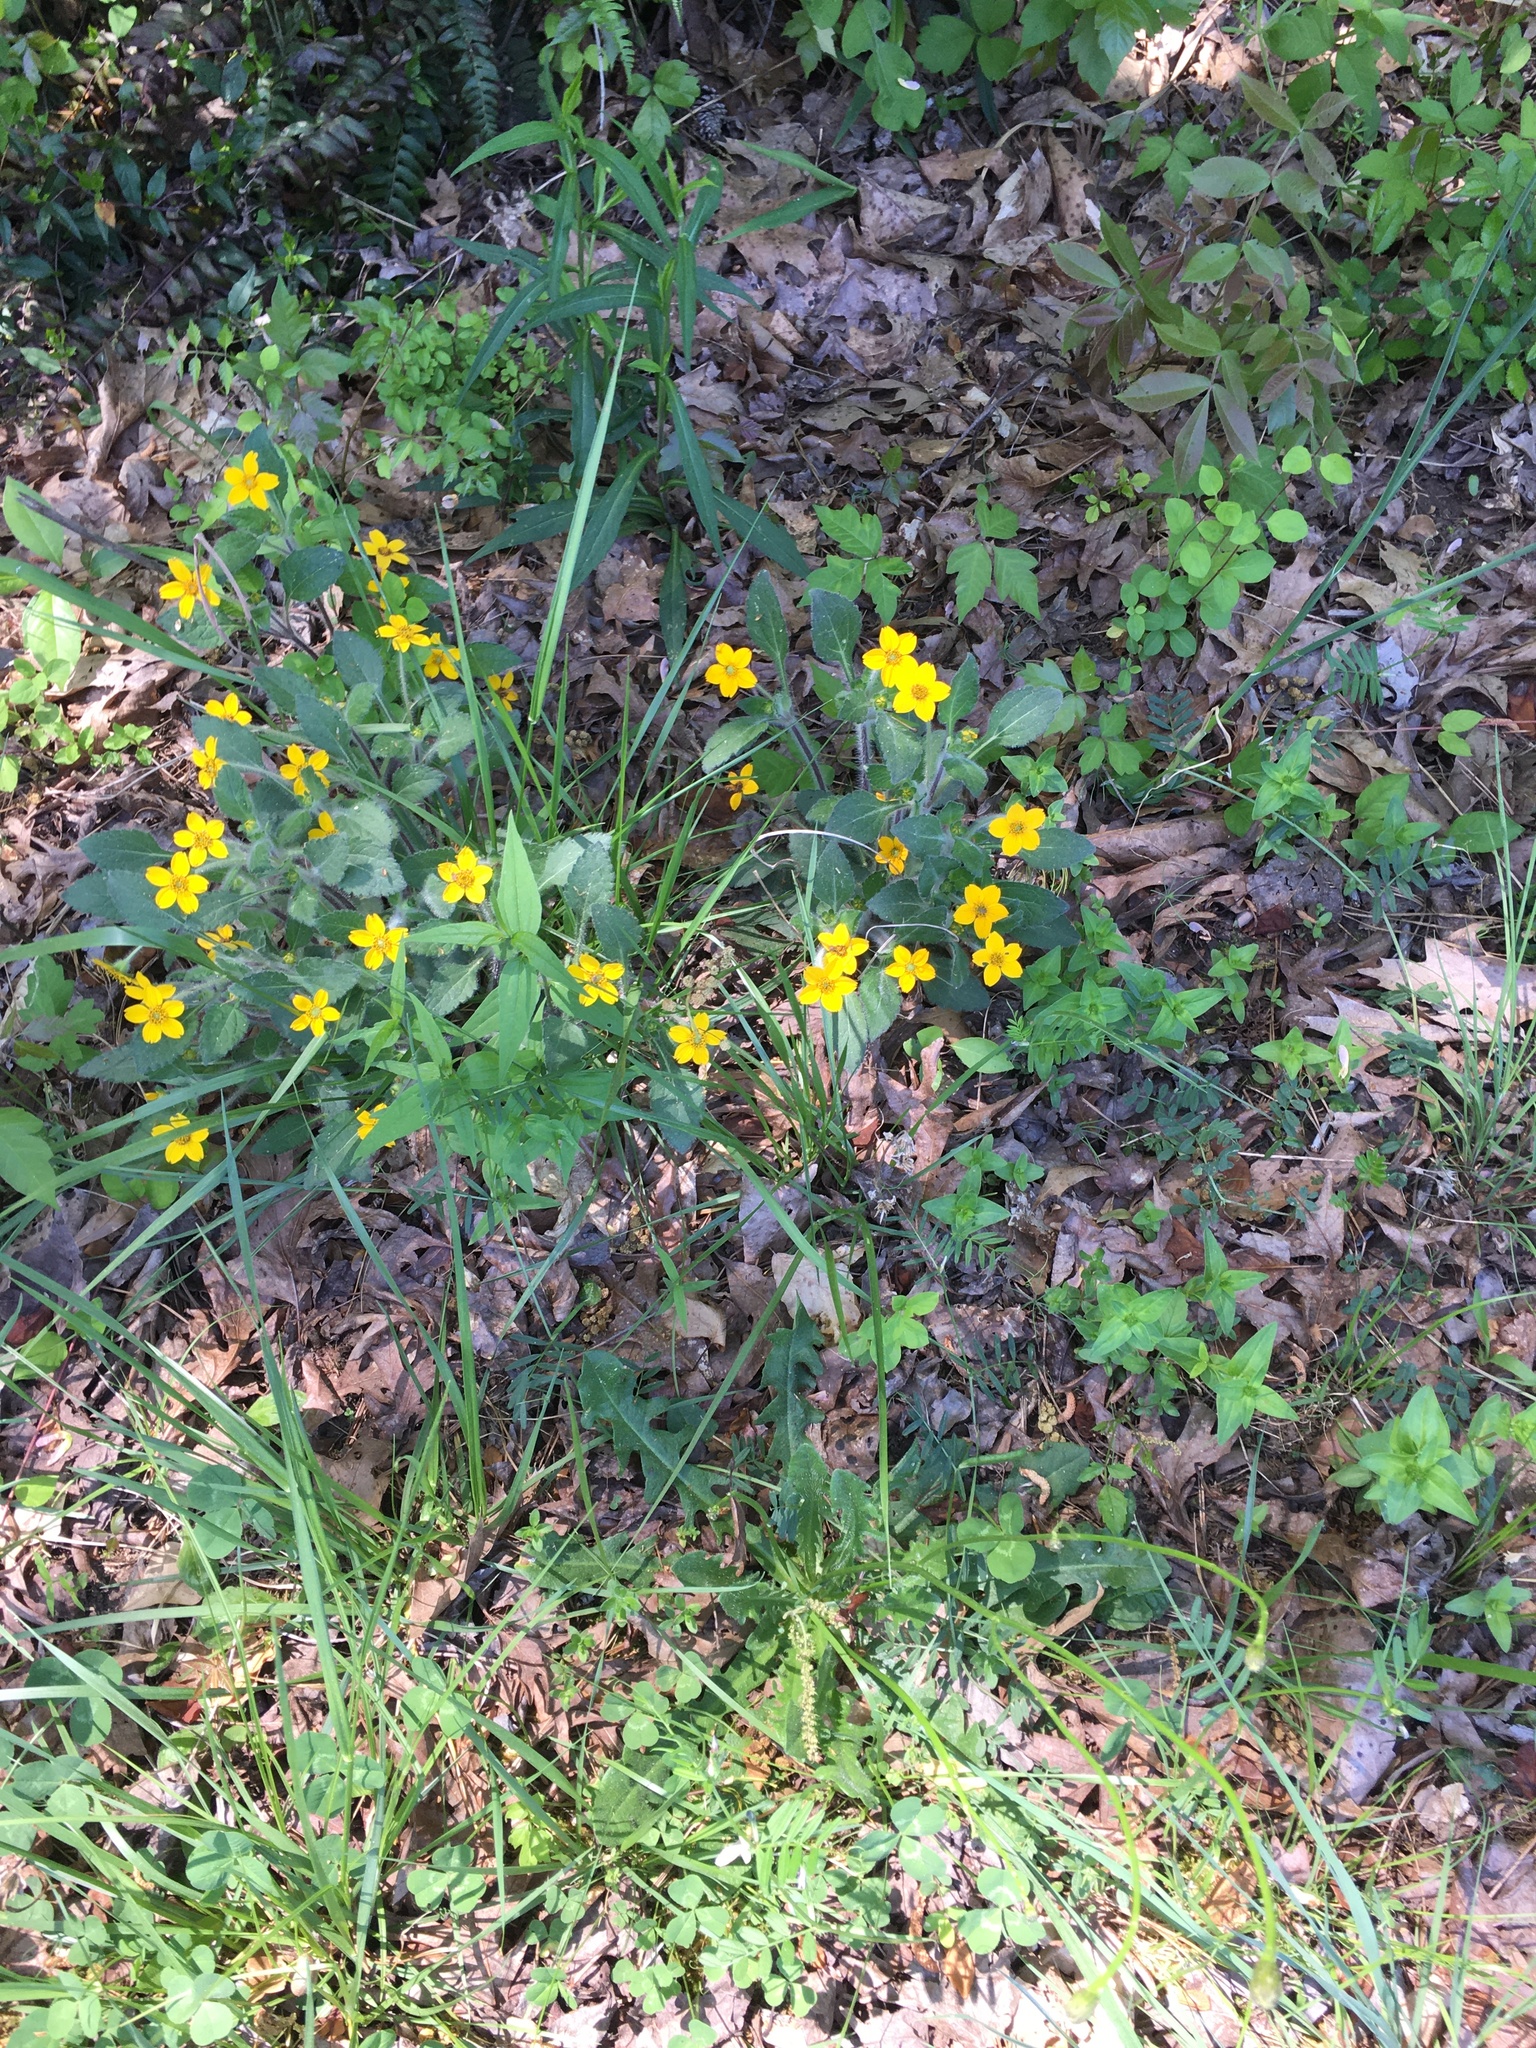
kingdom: Plantae
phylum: Tracheophyta
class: Magnoliopsida
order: Asterales
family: Asteraceae
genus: Chrysogonum
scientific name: Chrysogonum virginianum
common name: Golden-knee
